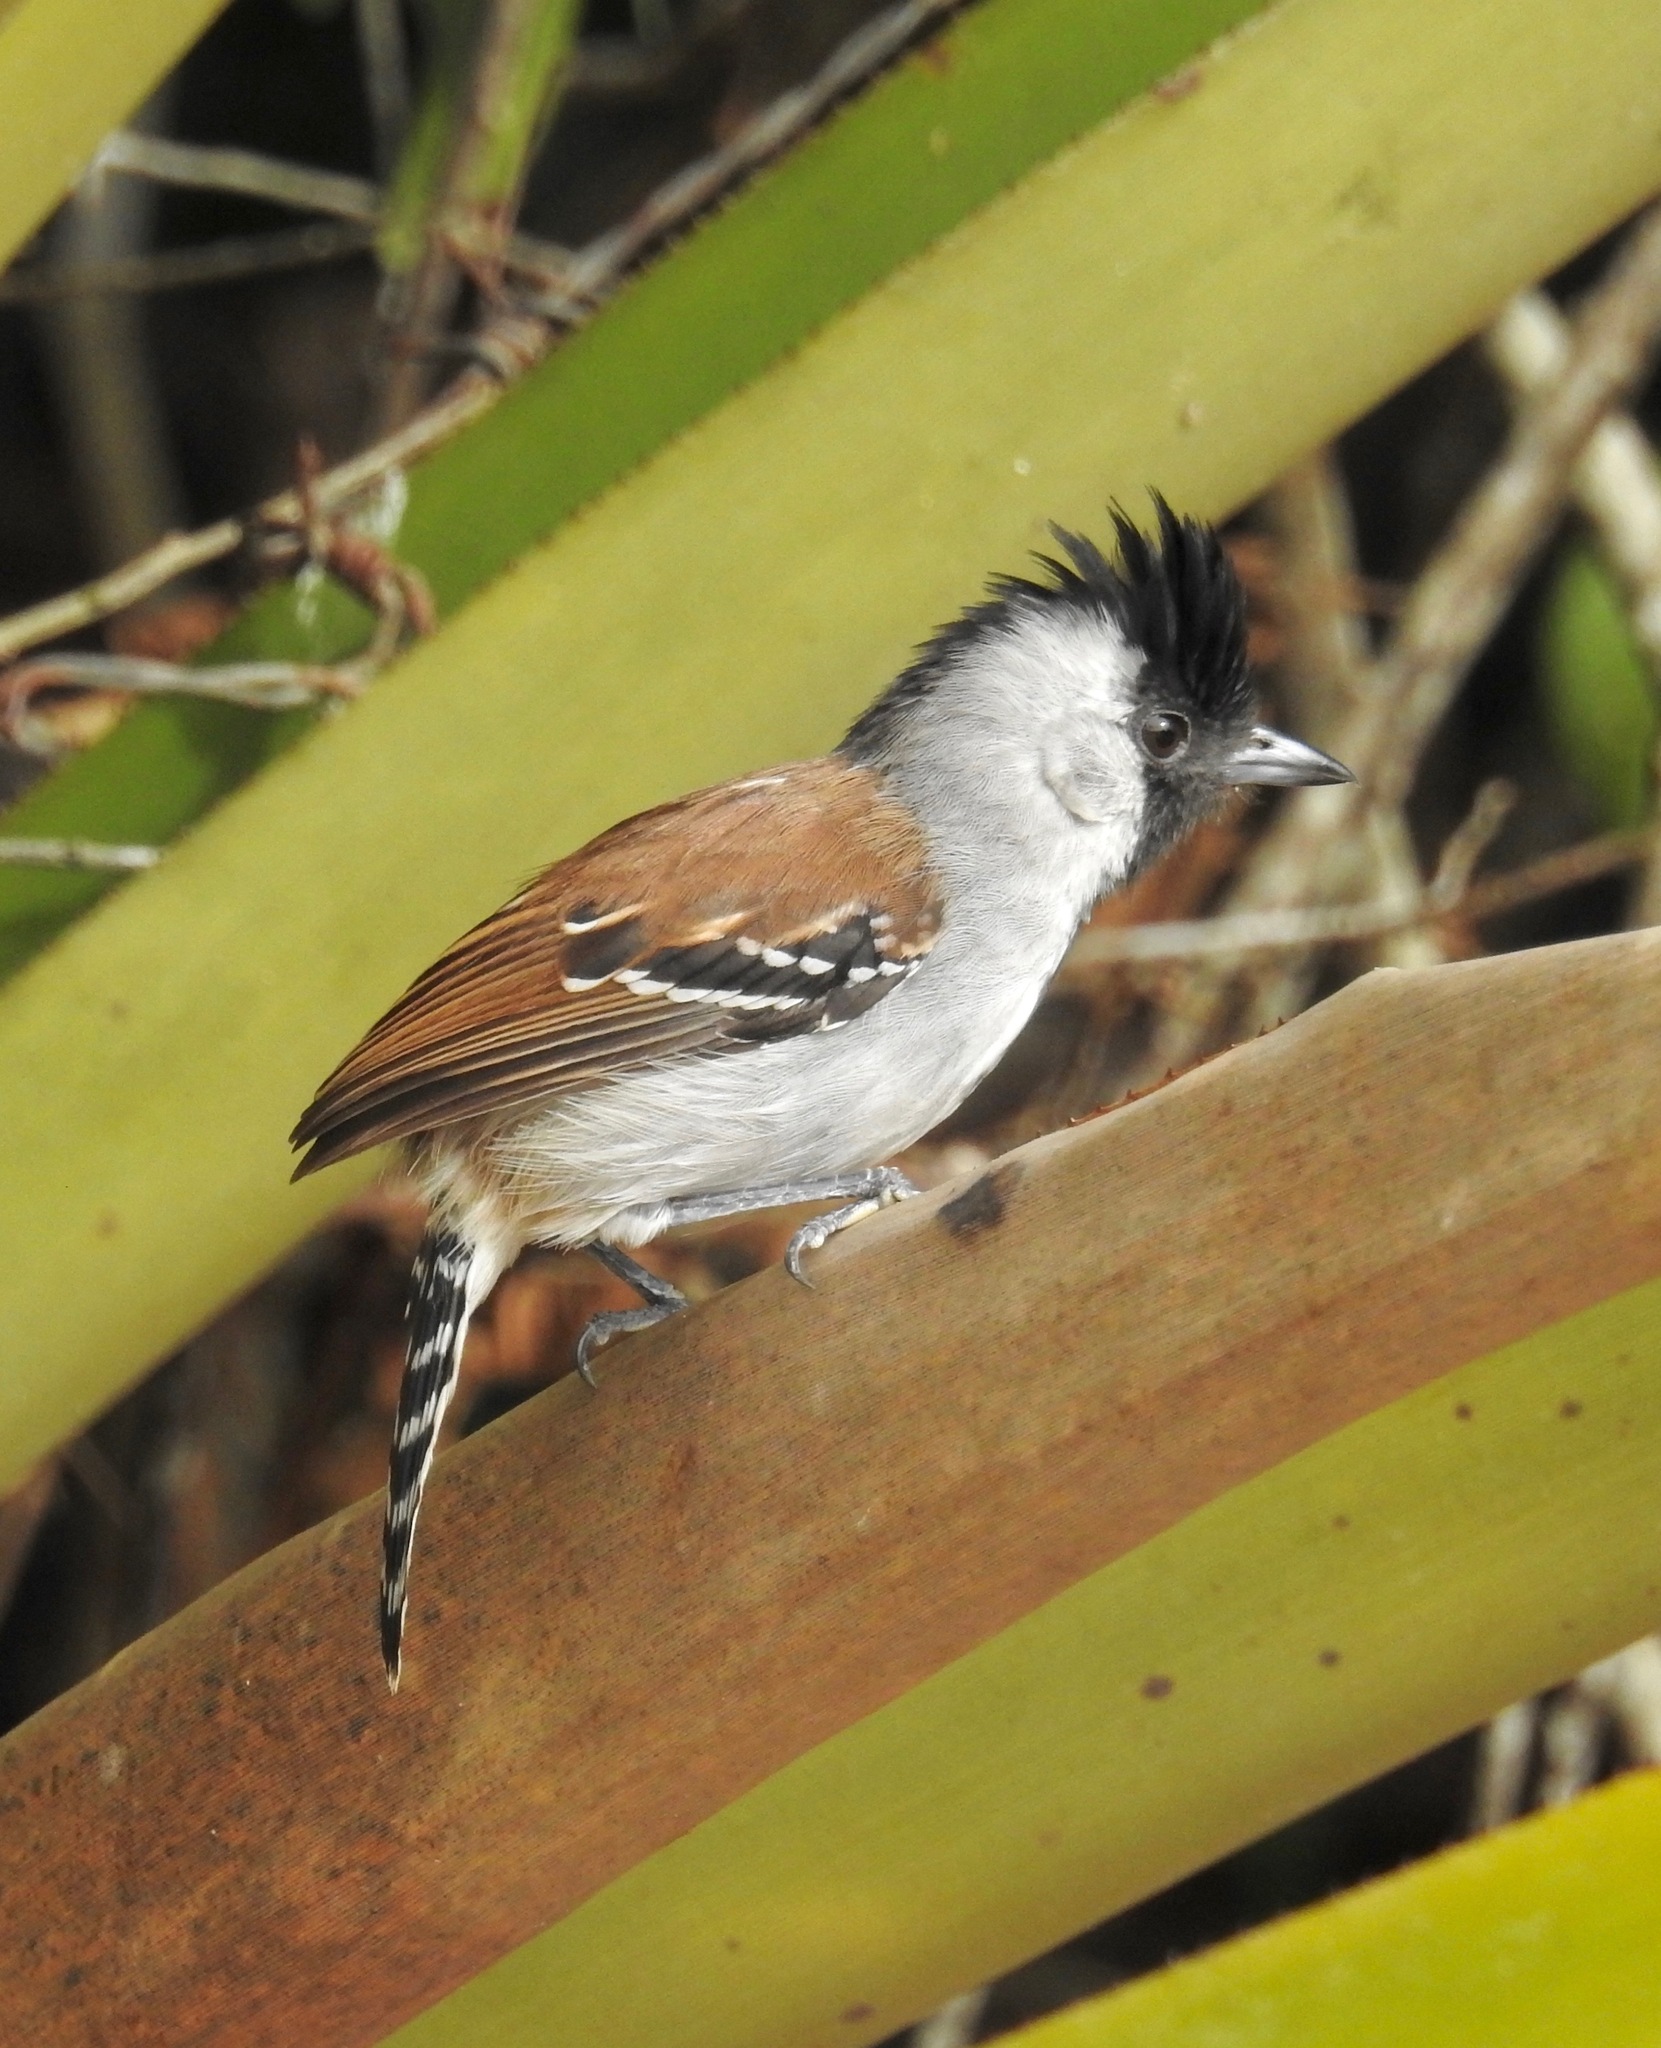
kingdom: Animalia
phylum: Chordata
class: Aves
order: Passeriformes
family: Thamnophilidae
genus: Sakesphorus
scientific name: Sakesphorus cristatus
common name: Silvery-cheeked antshrike
